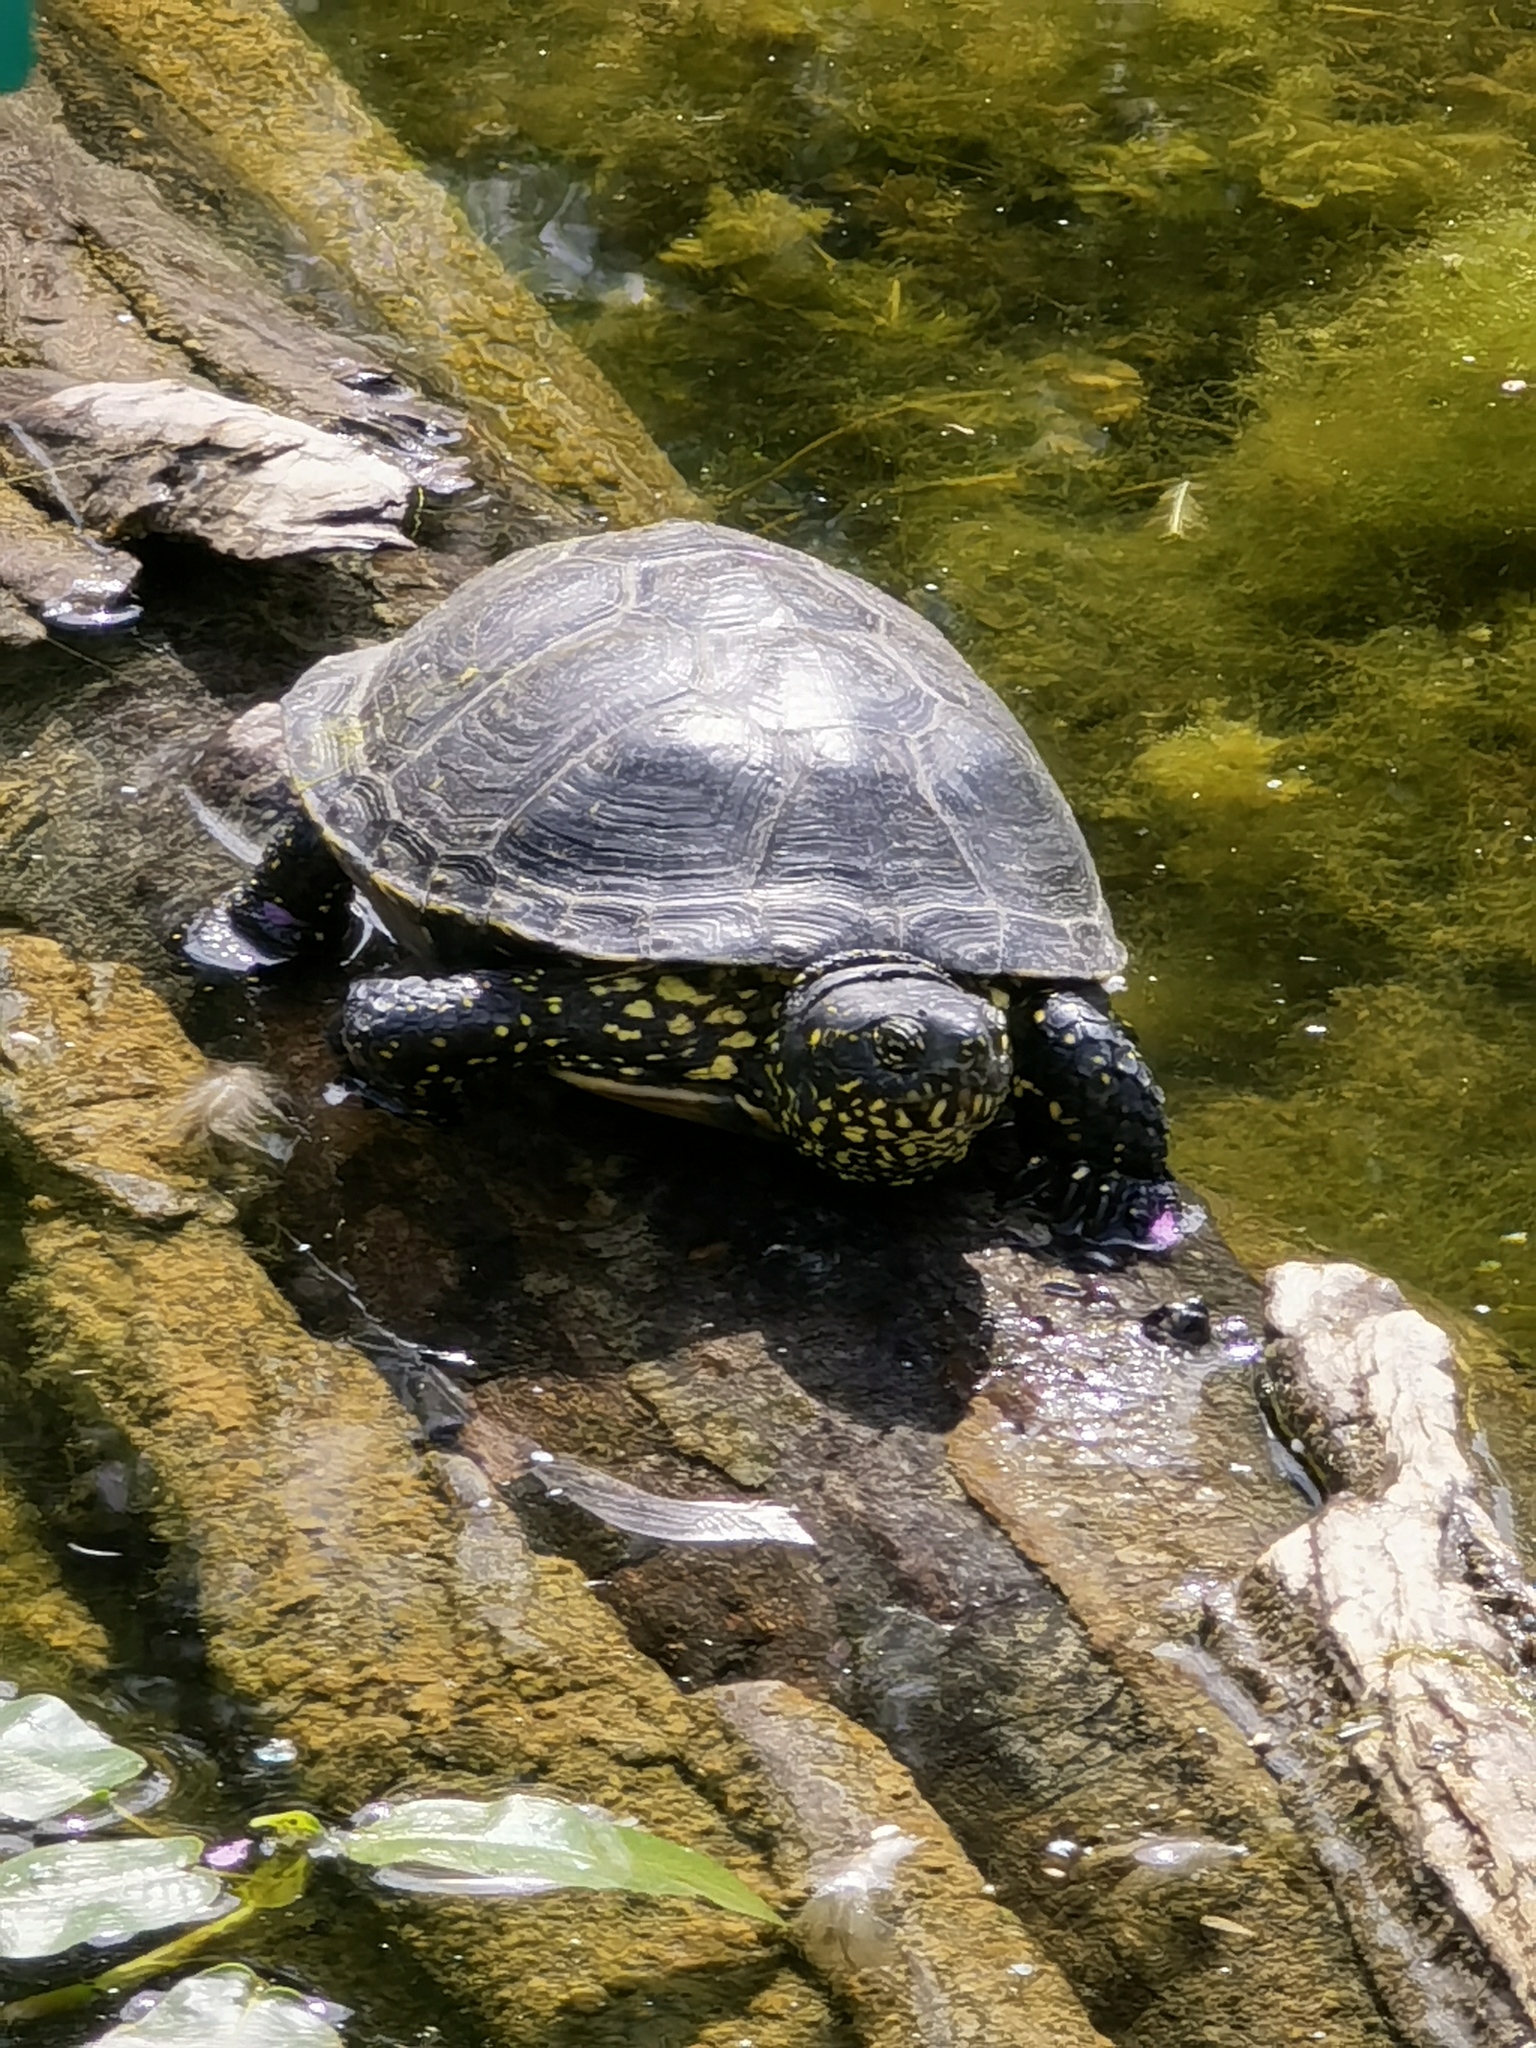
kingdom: Animalia
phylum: Chordata
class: Testudines
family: Emydidae
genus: Emys
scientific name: Emys orbicularis
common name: European pond turtle
